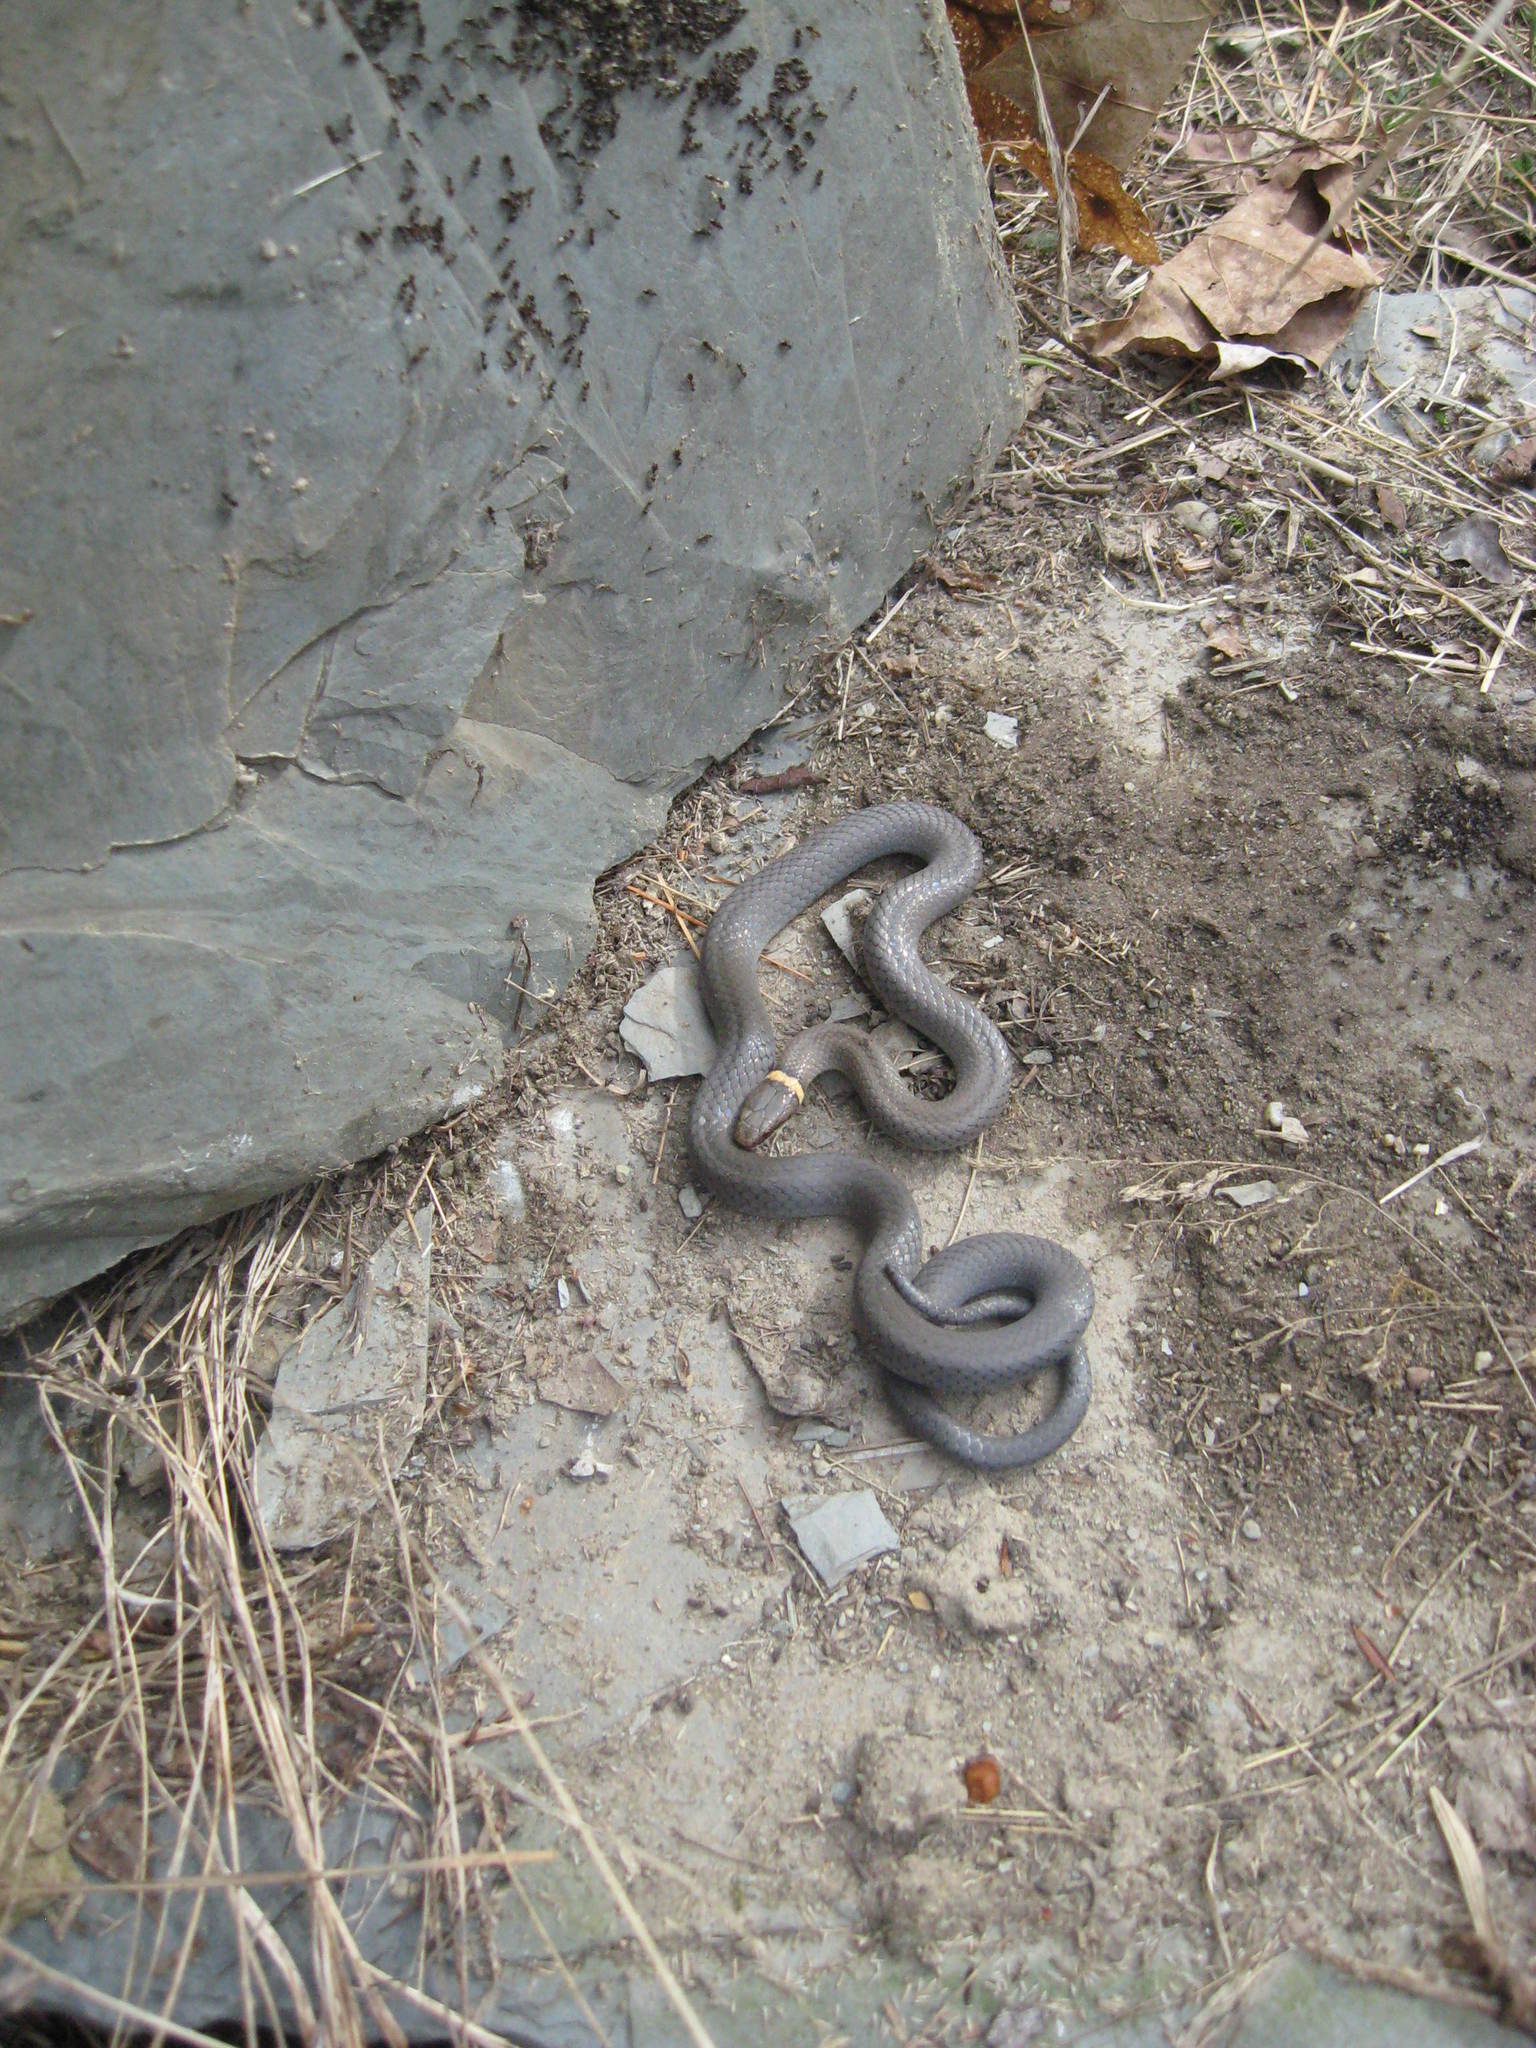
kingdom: Animalia
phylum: Chordata
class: Squamata
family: Colubridae
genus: Diadophis
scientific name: Diadophis punctatus
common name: Ringneck snake
